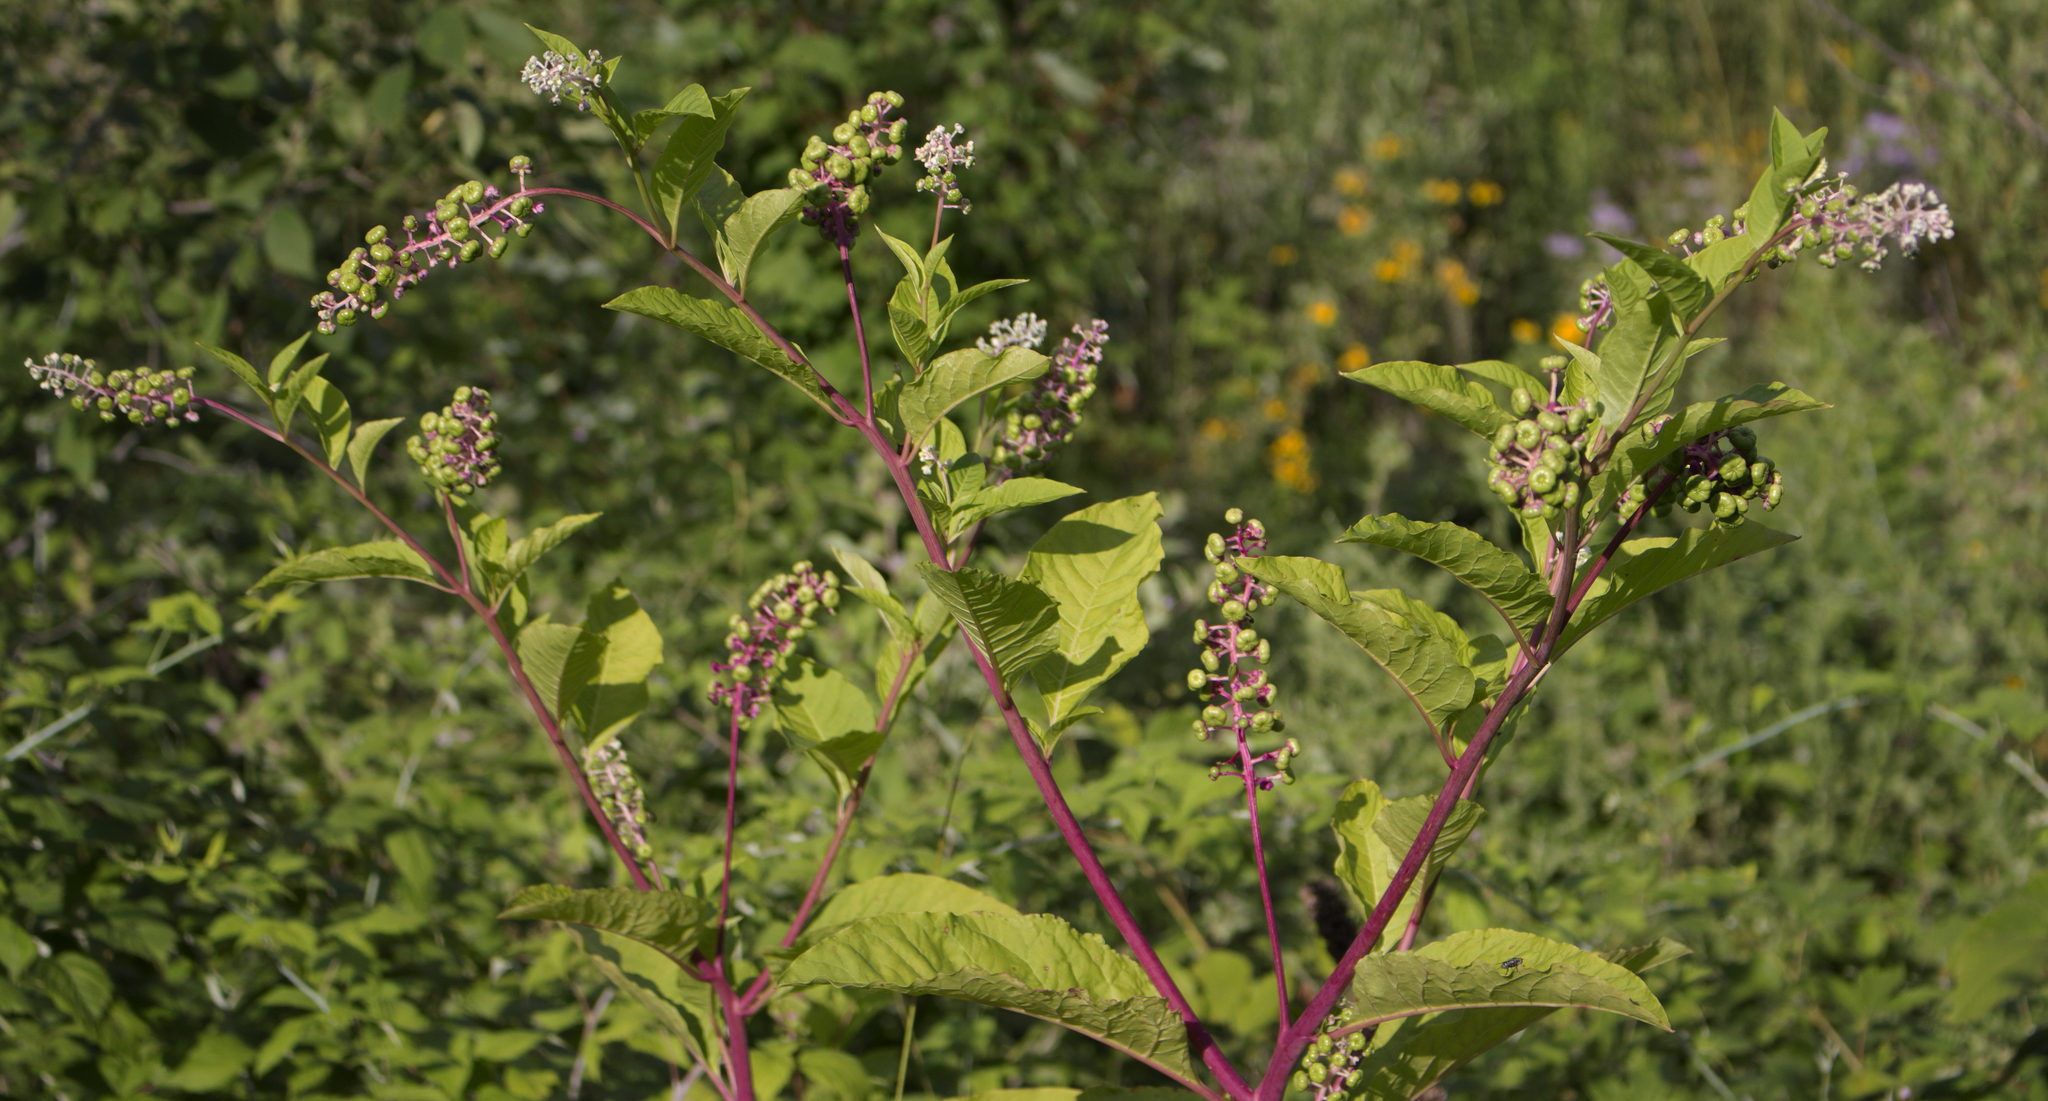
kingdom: Plantae
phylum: Tracheophyta
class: Magnoliopsida
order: Caryophyllales
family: Phytolaccaceae
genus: Phytolacca
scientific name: Phytolacca americana
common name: American pokeweed
